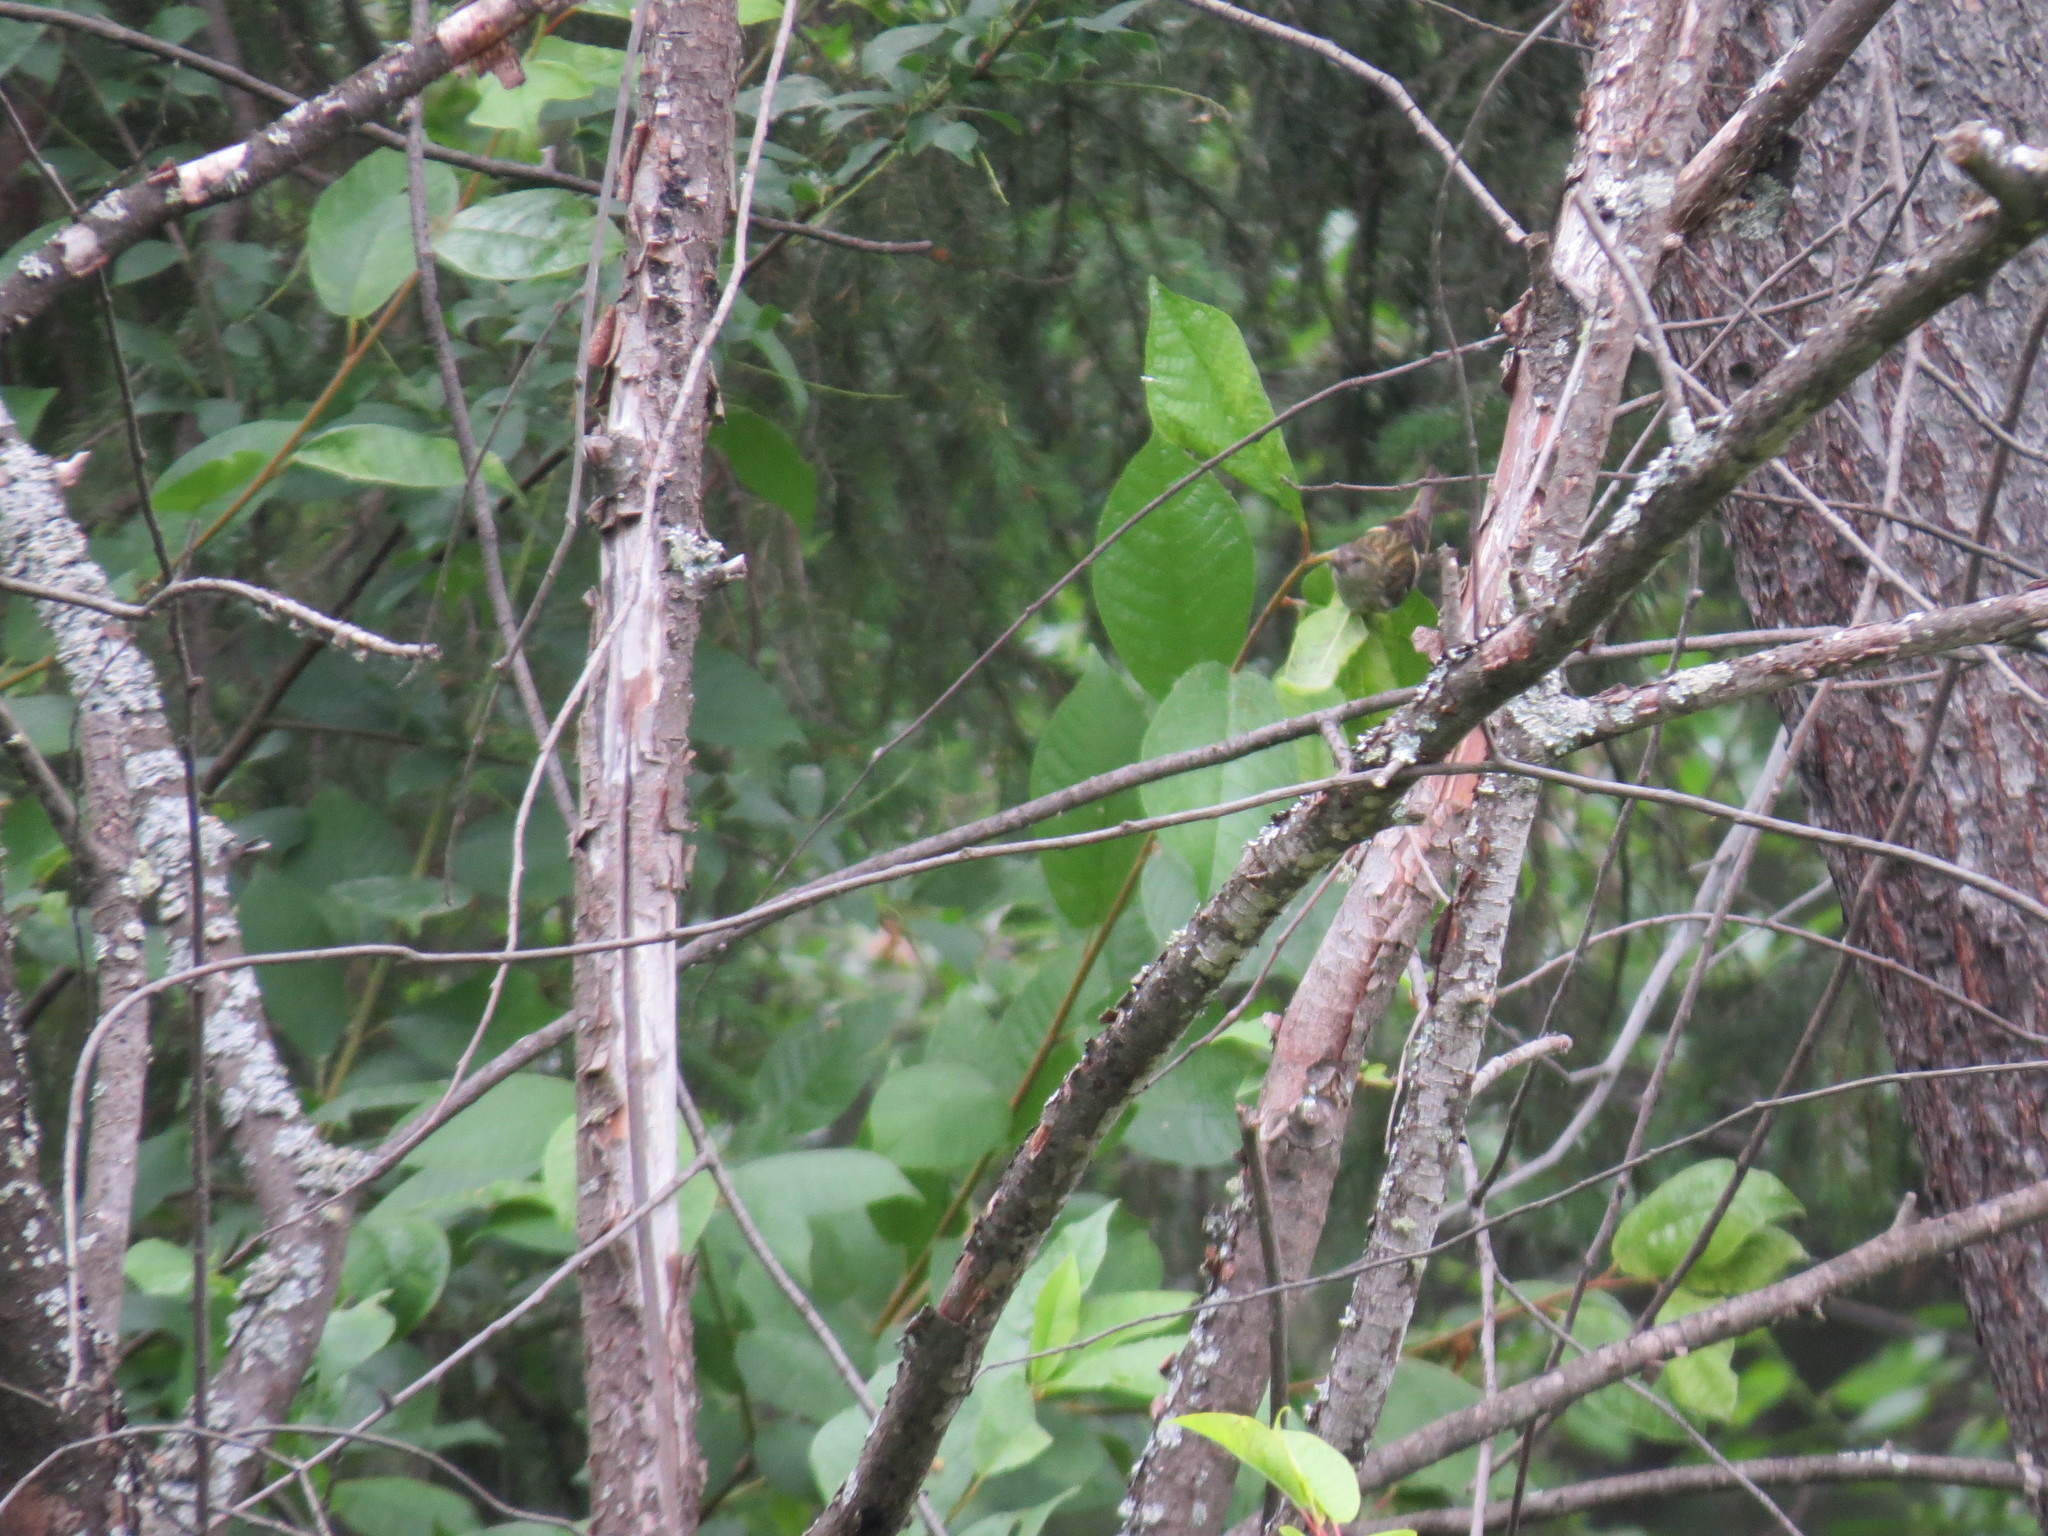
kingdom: Animalia
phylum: Chordata
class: Aves
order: Passeriformes
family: Fringillidae
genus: Spinus
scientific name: Spinus spinus
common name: Eurasian siskin
